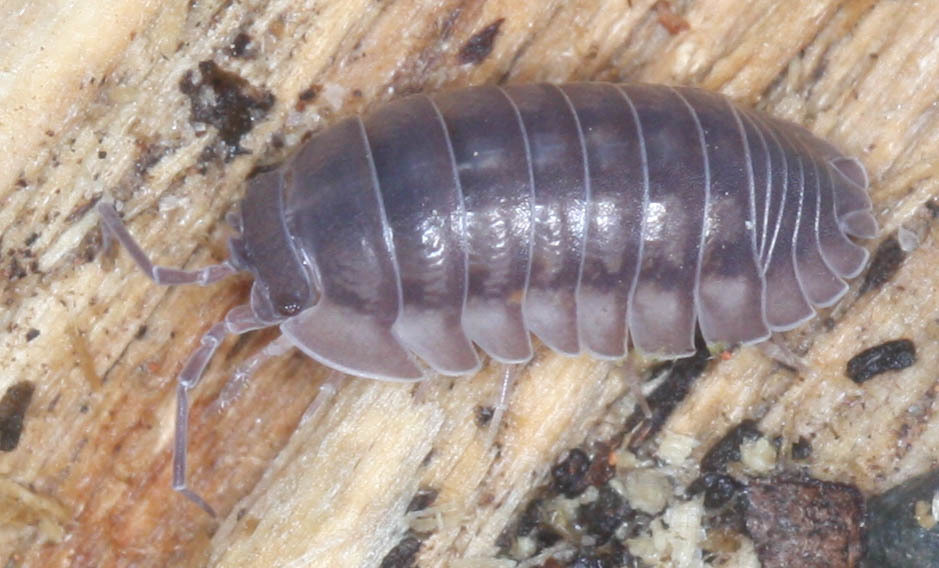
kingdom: Animalia
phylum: Arthropoda
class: Malacostraca
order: Isopoda
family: Armadillidiidae
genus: Armadillidium
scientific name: Armadillidium nasatum
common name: Isopod
